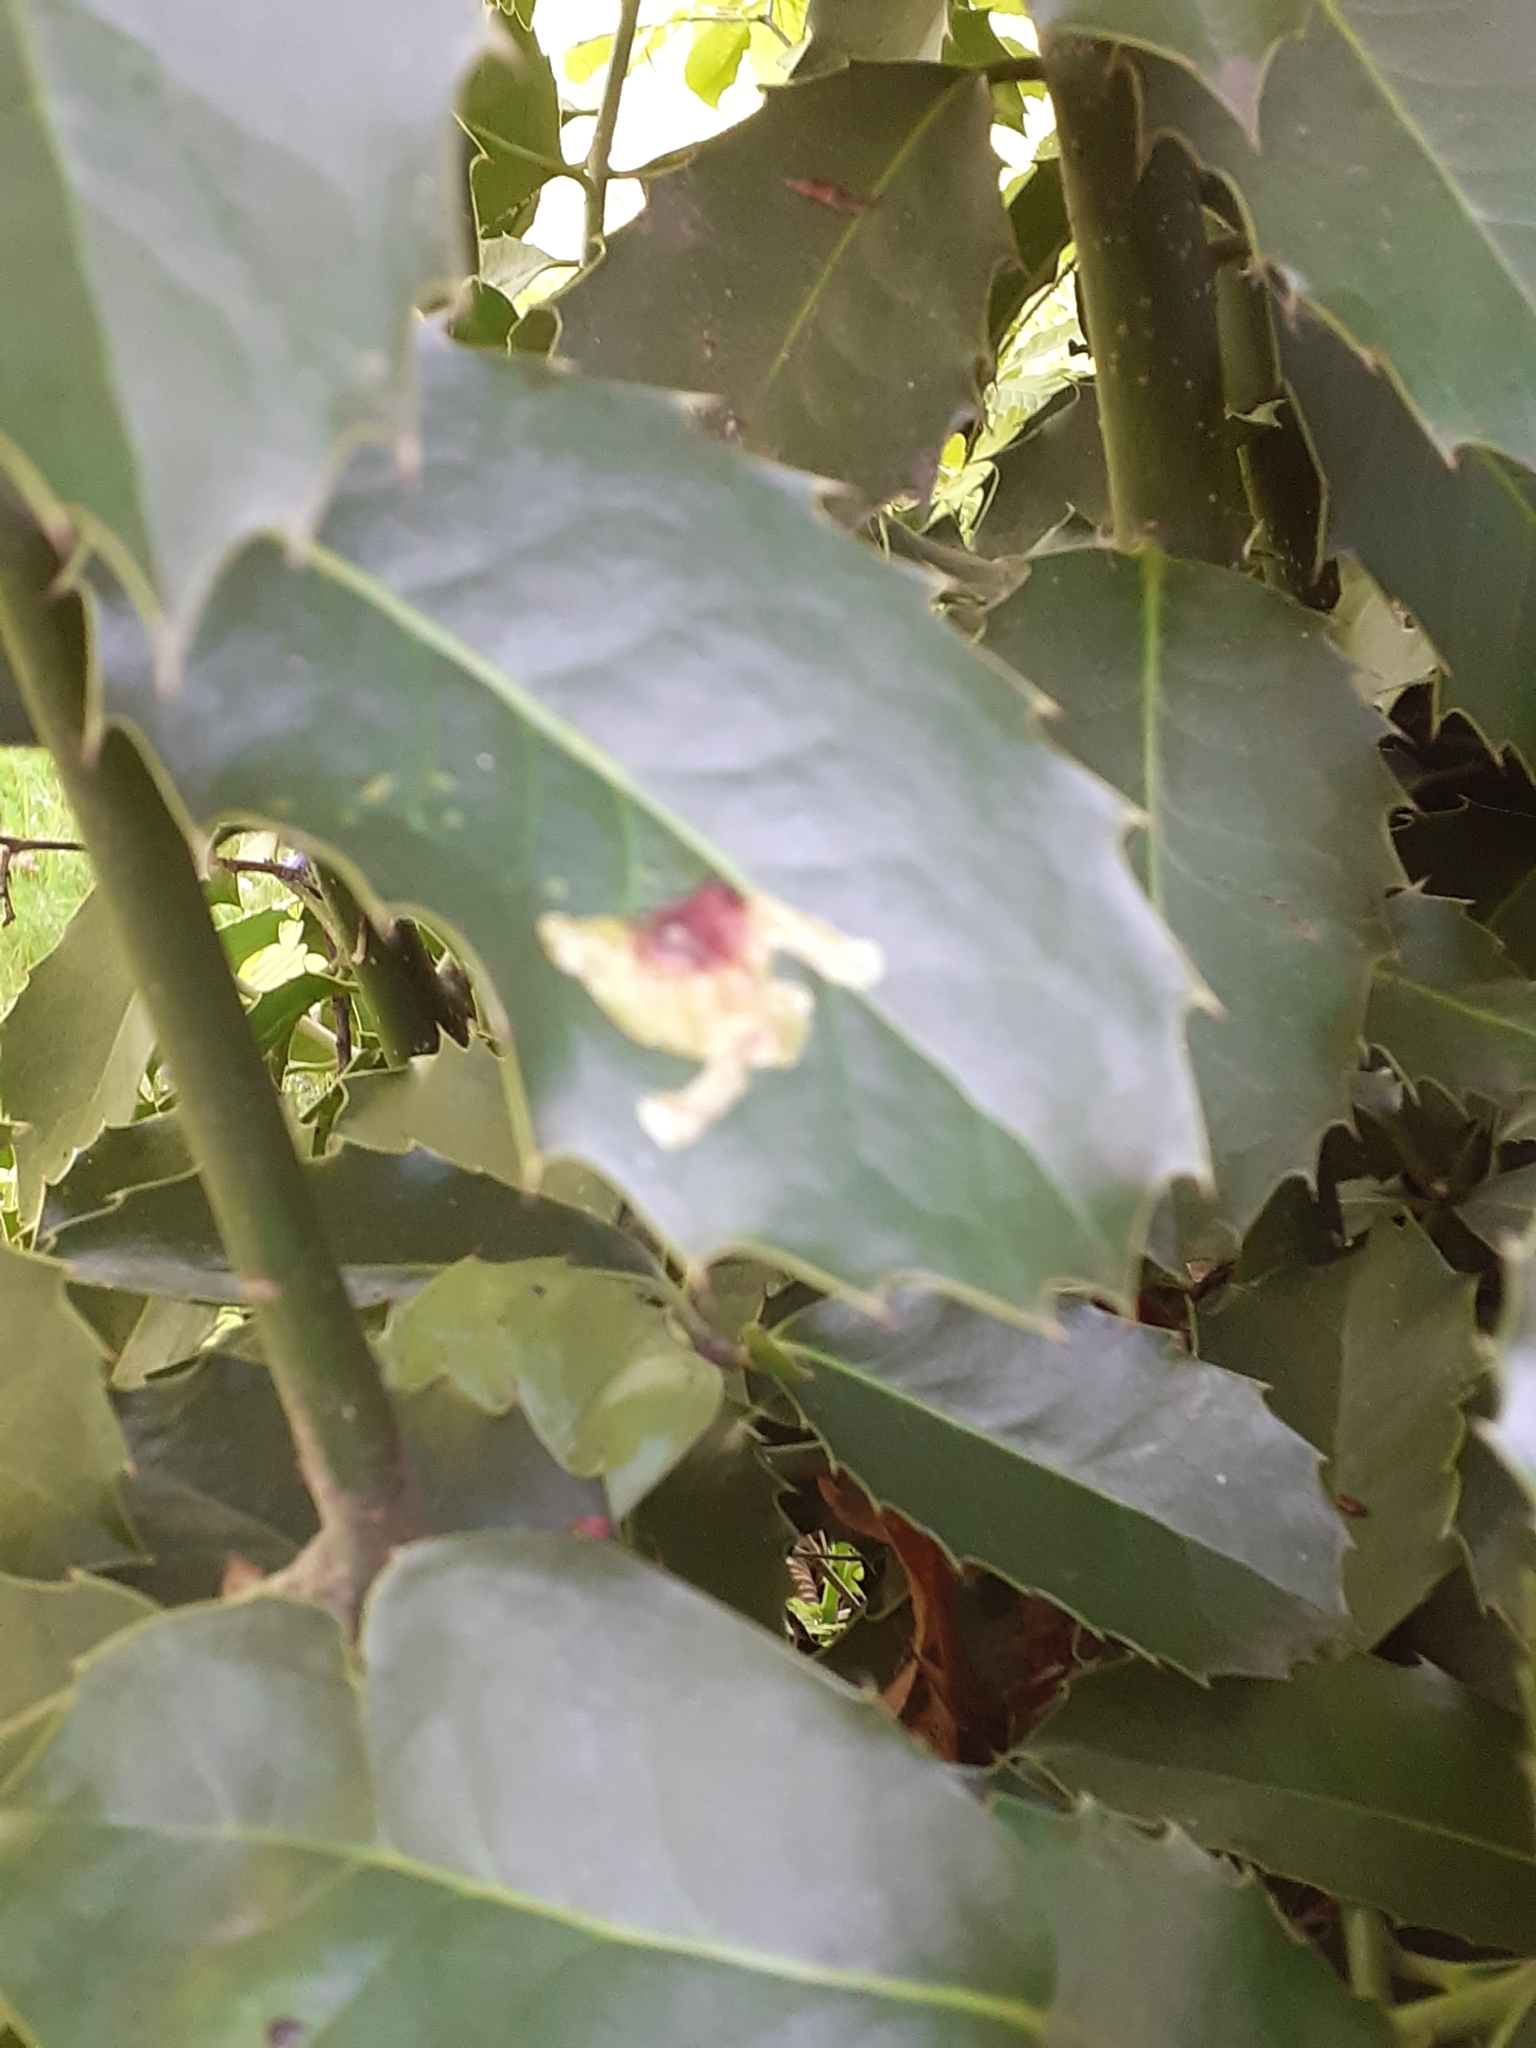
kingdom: Animalia
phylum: Arthropoda
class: Insecta
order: Diptera
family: Agromyzidae
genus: Phytomyza
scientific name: Phytomyza ilicis
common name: Holly leafminer
